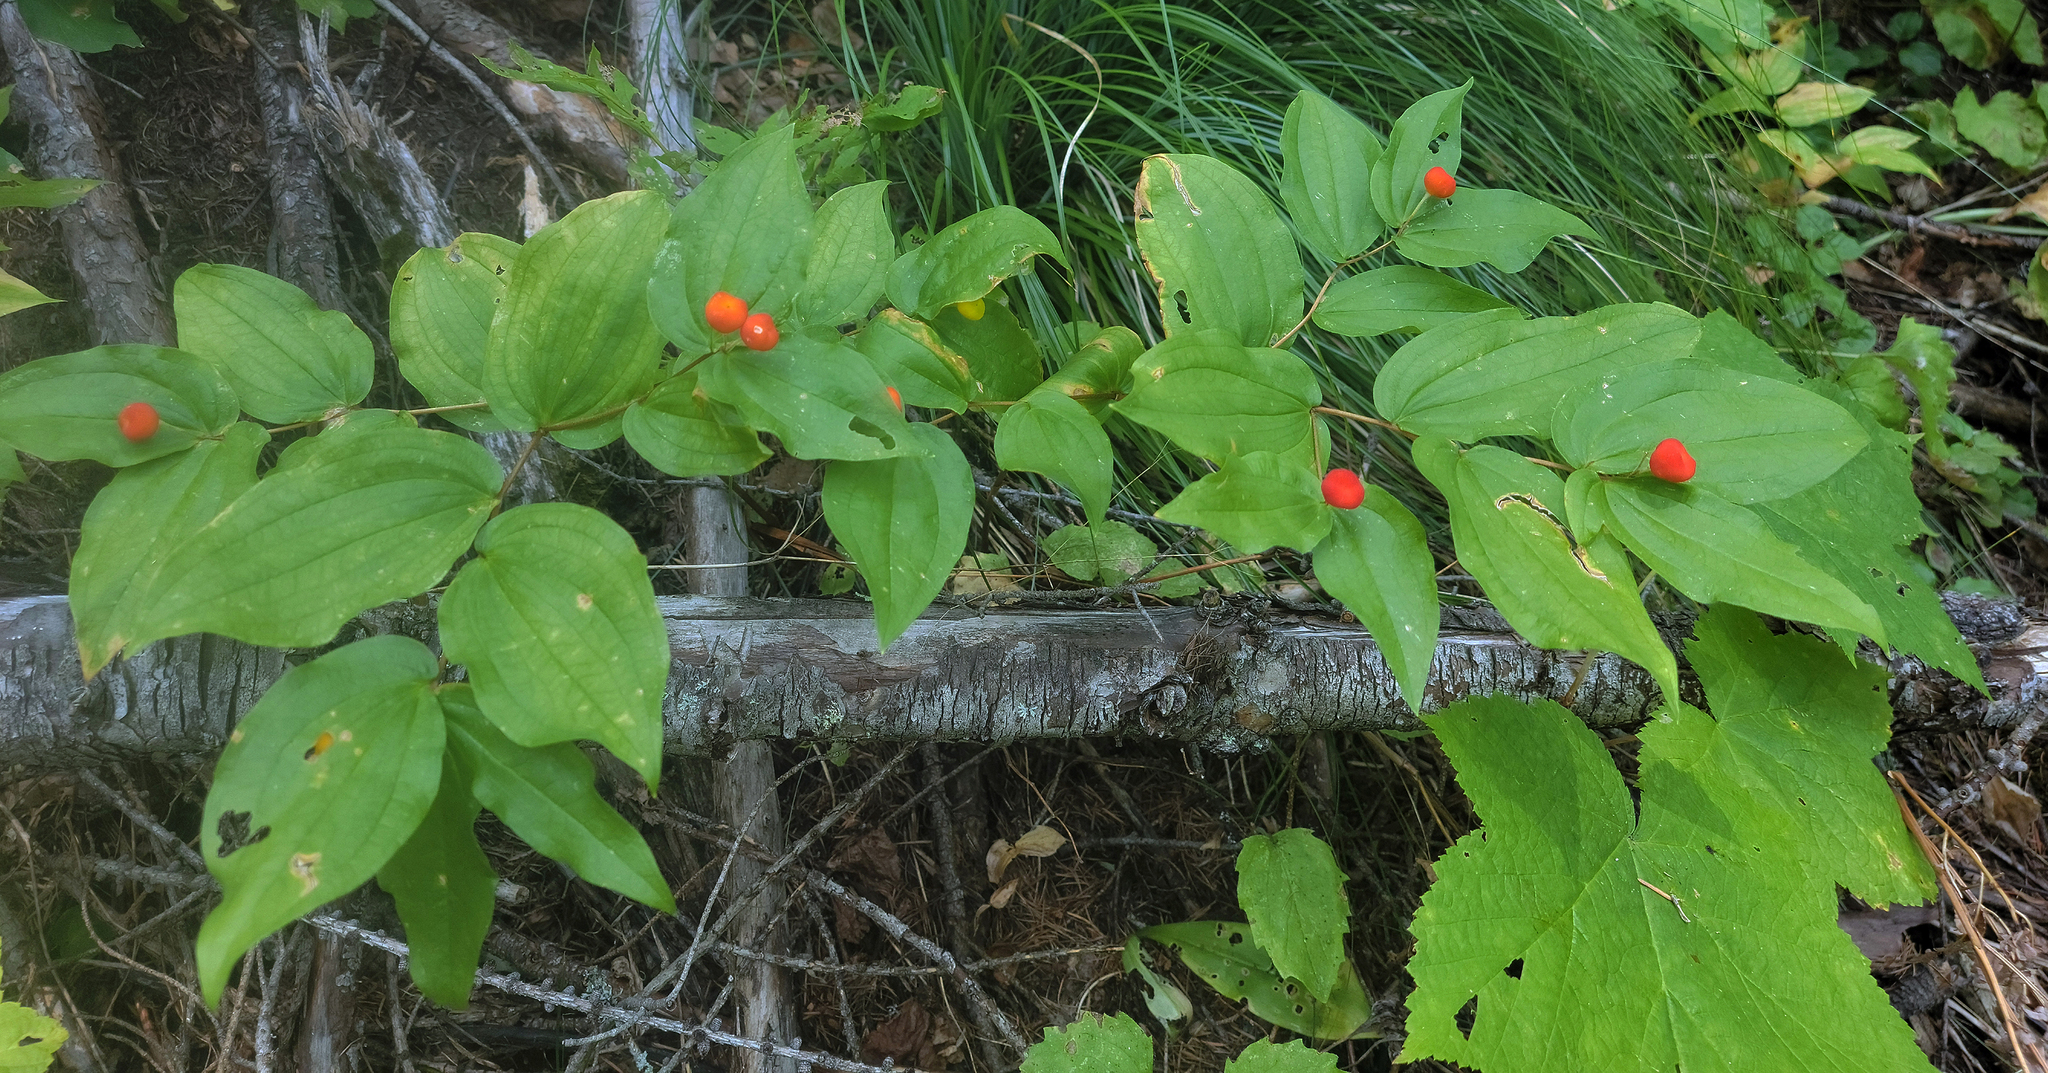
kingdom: Plantae
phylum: Tracheophyta
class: Liliopsida
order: Liliales
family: Liliaceae
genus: Prosartes
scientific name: Prosartes trachycarpa
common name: Rough-fruit fairy-bells
